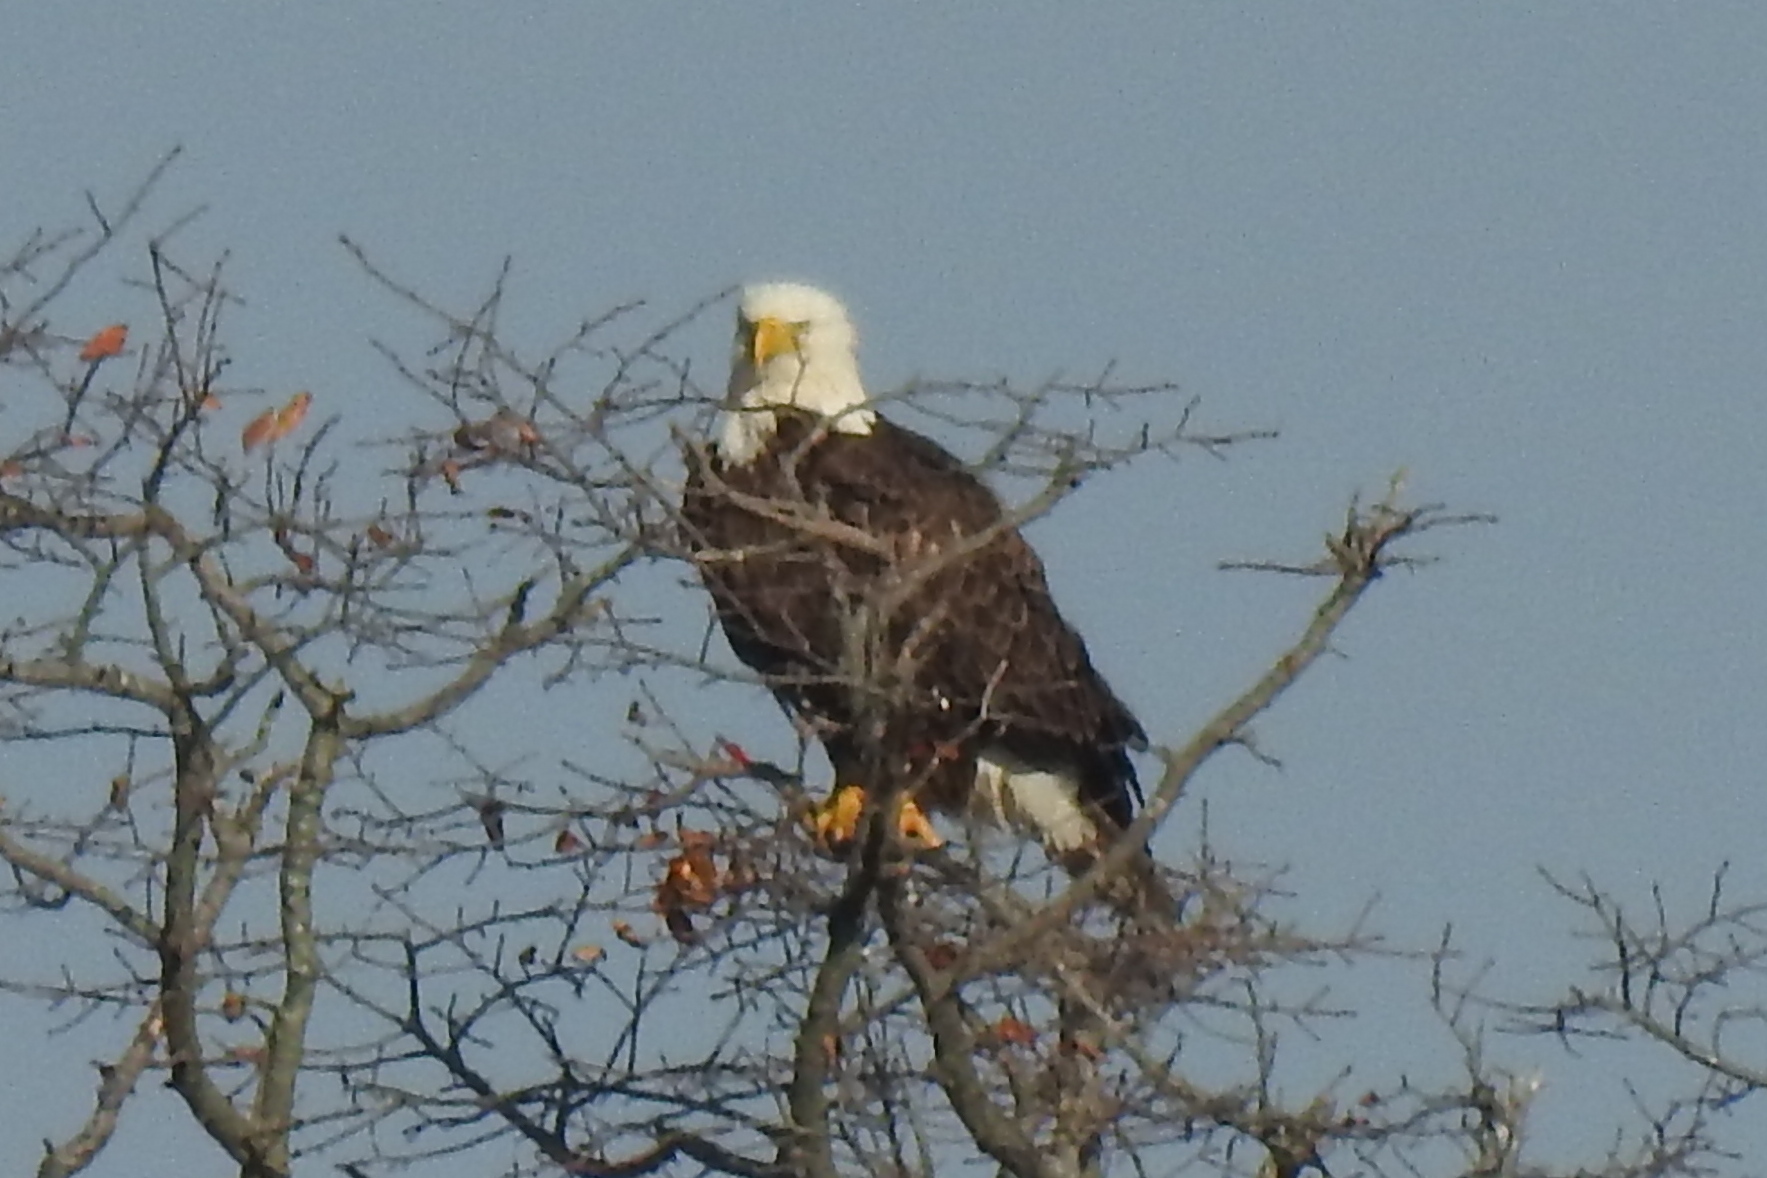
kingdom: Animalia
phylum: Chordata
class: Aves
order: Accipitriformes
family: Accipitridae
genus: Haliaeetus
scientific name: Haliaeetus leucocephalus
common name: Bald eagle
